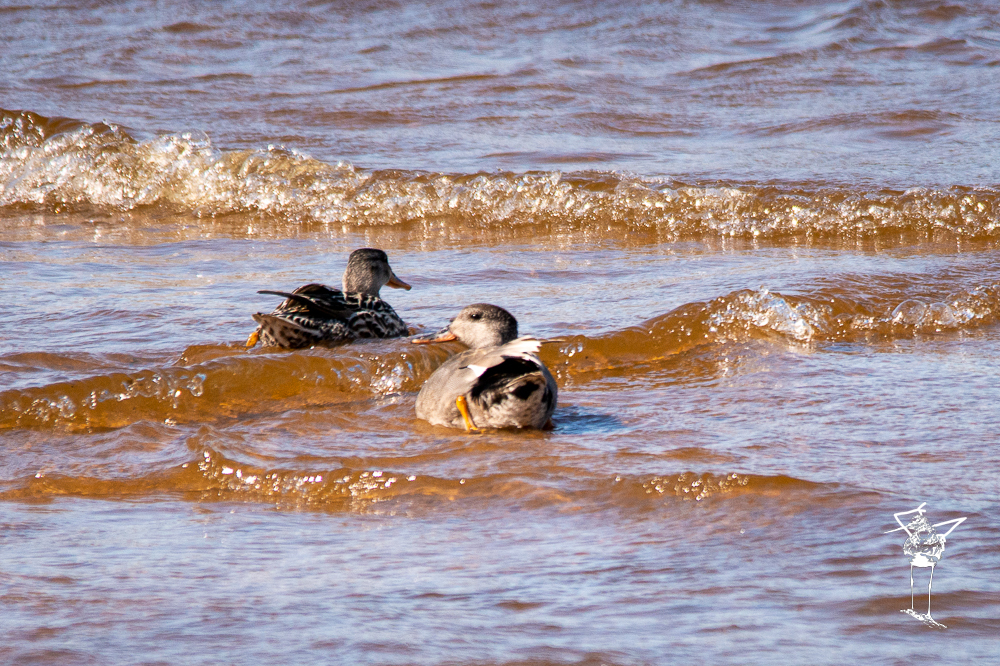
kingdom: Animalia
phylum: Chordata
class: Aves
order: Anseriformes
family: Anatidae
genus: Mareca
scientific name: Mareca strepera
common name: Gadwall
